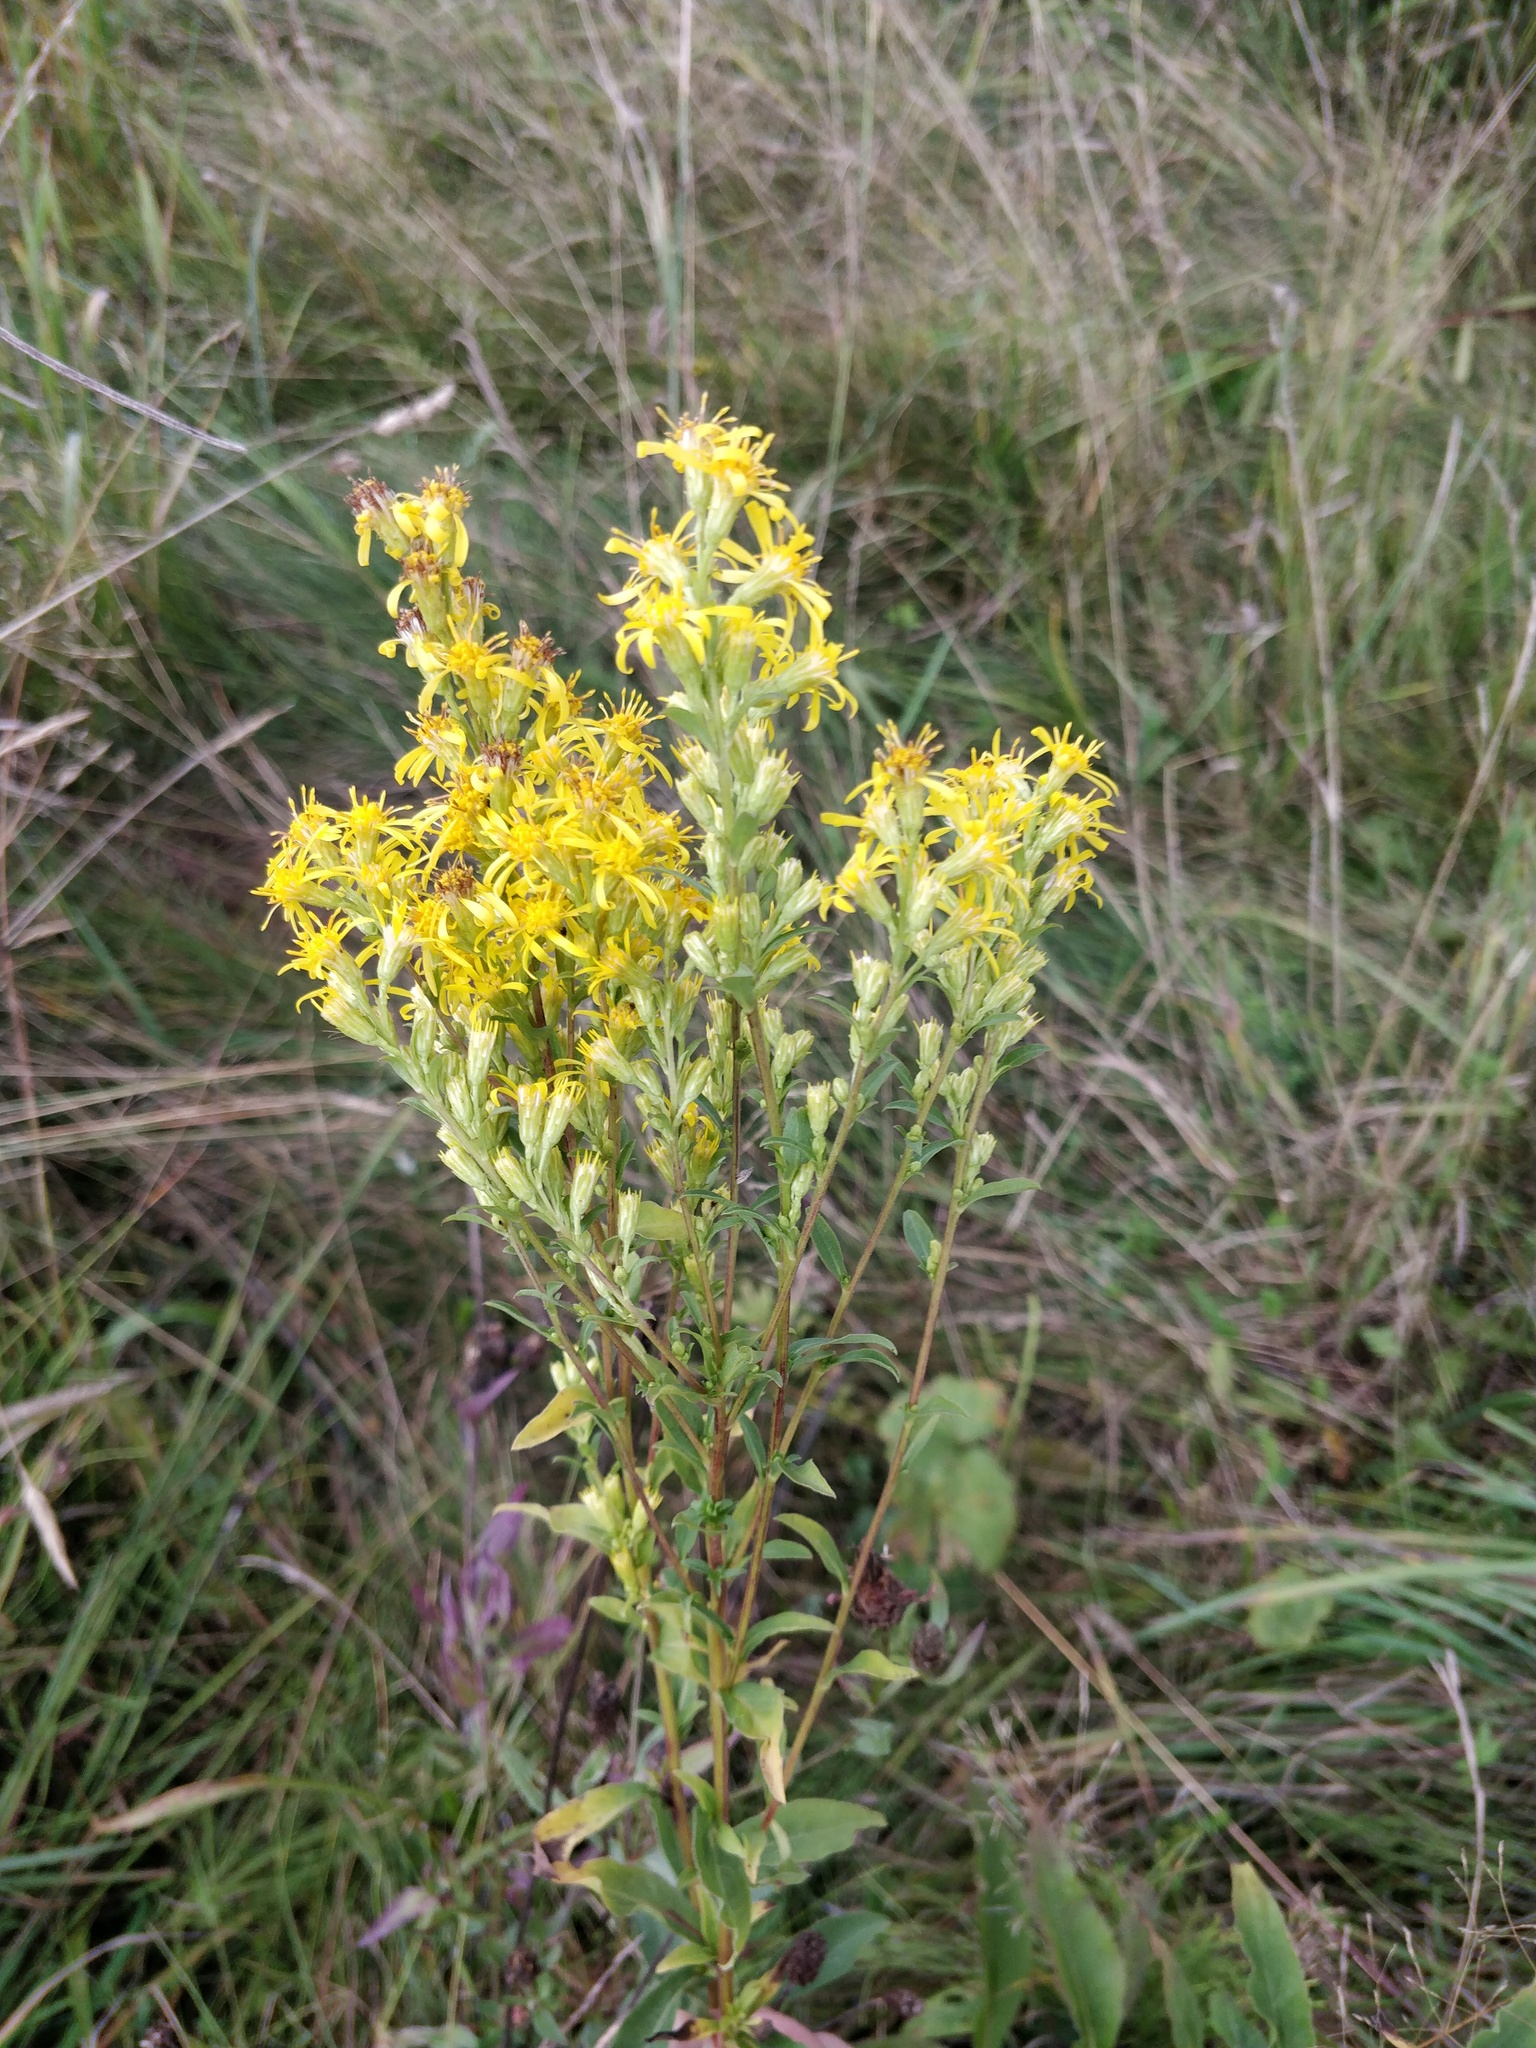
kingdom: Plantae
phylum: Tracheophyta
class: Magnoliopsida
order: Asterales
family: Asteraceae
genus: Solidago
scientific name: Solidago virgaurea
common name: Goldenrod
